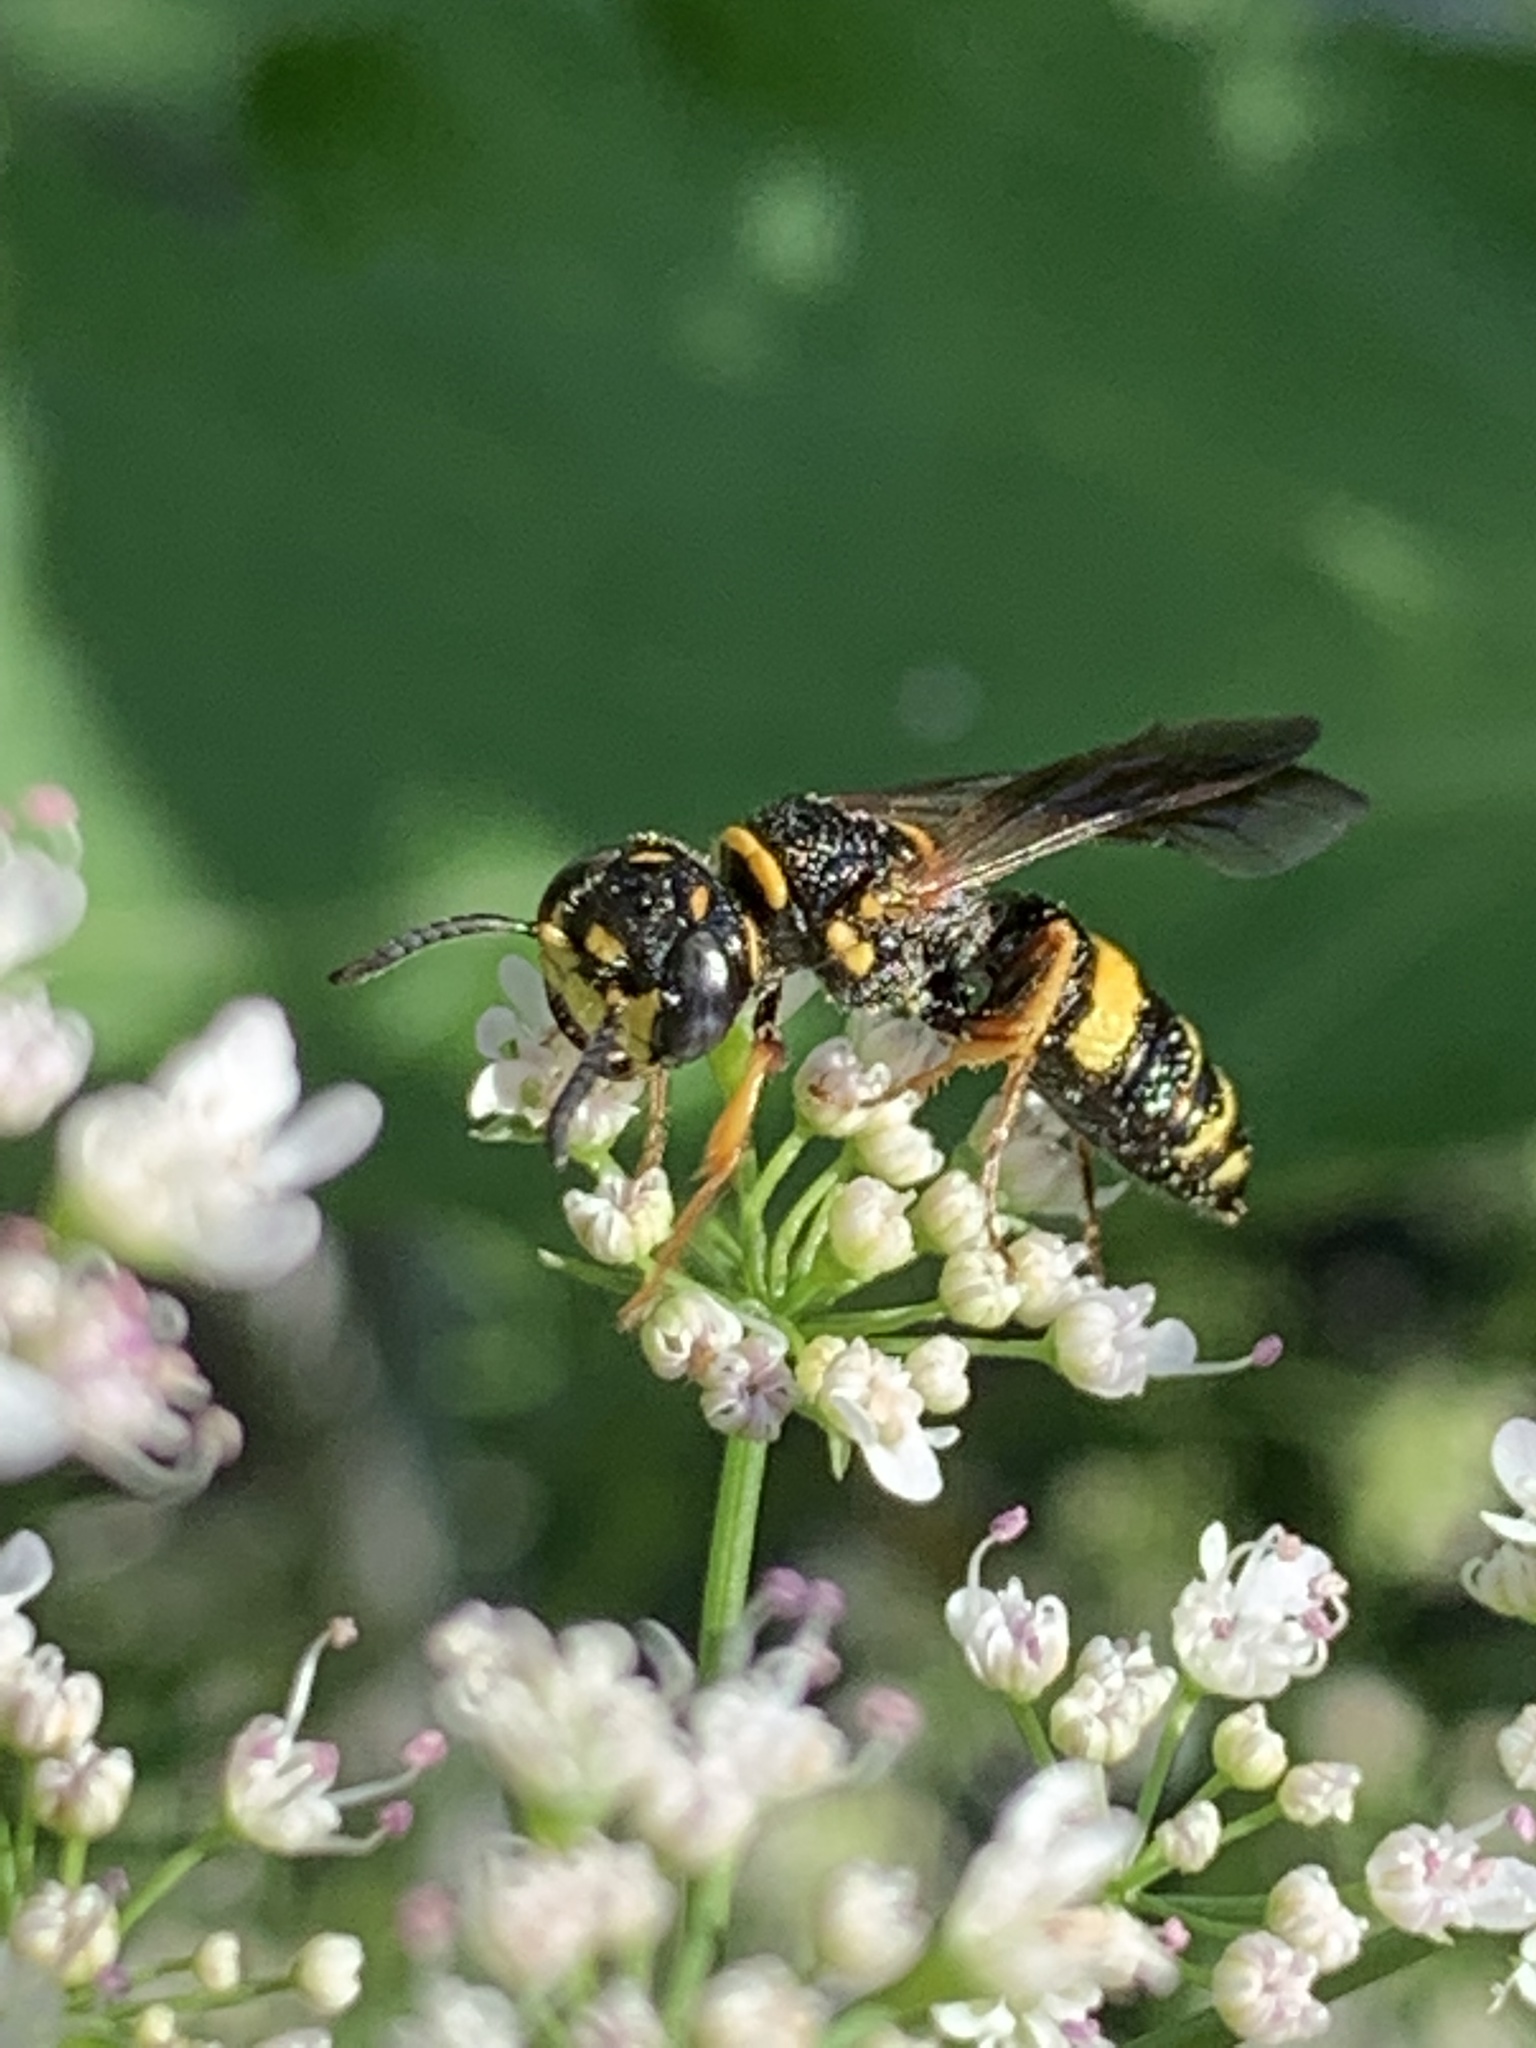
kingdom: Animalia
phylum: Arthropoda
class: Insecta
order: Hymenoptera
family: Crabronidae
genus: Philanthus
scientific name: Philanthus gibbosus
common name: Humped beewolf
